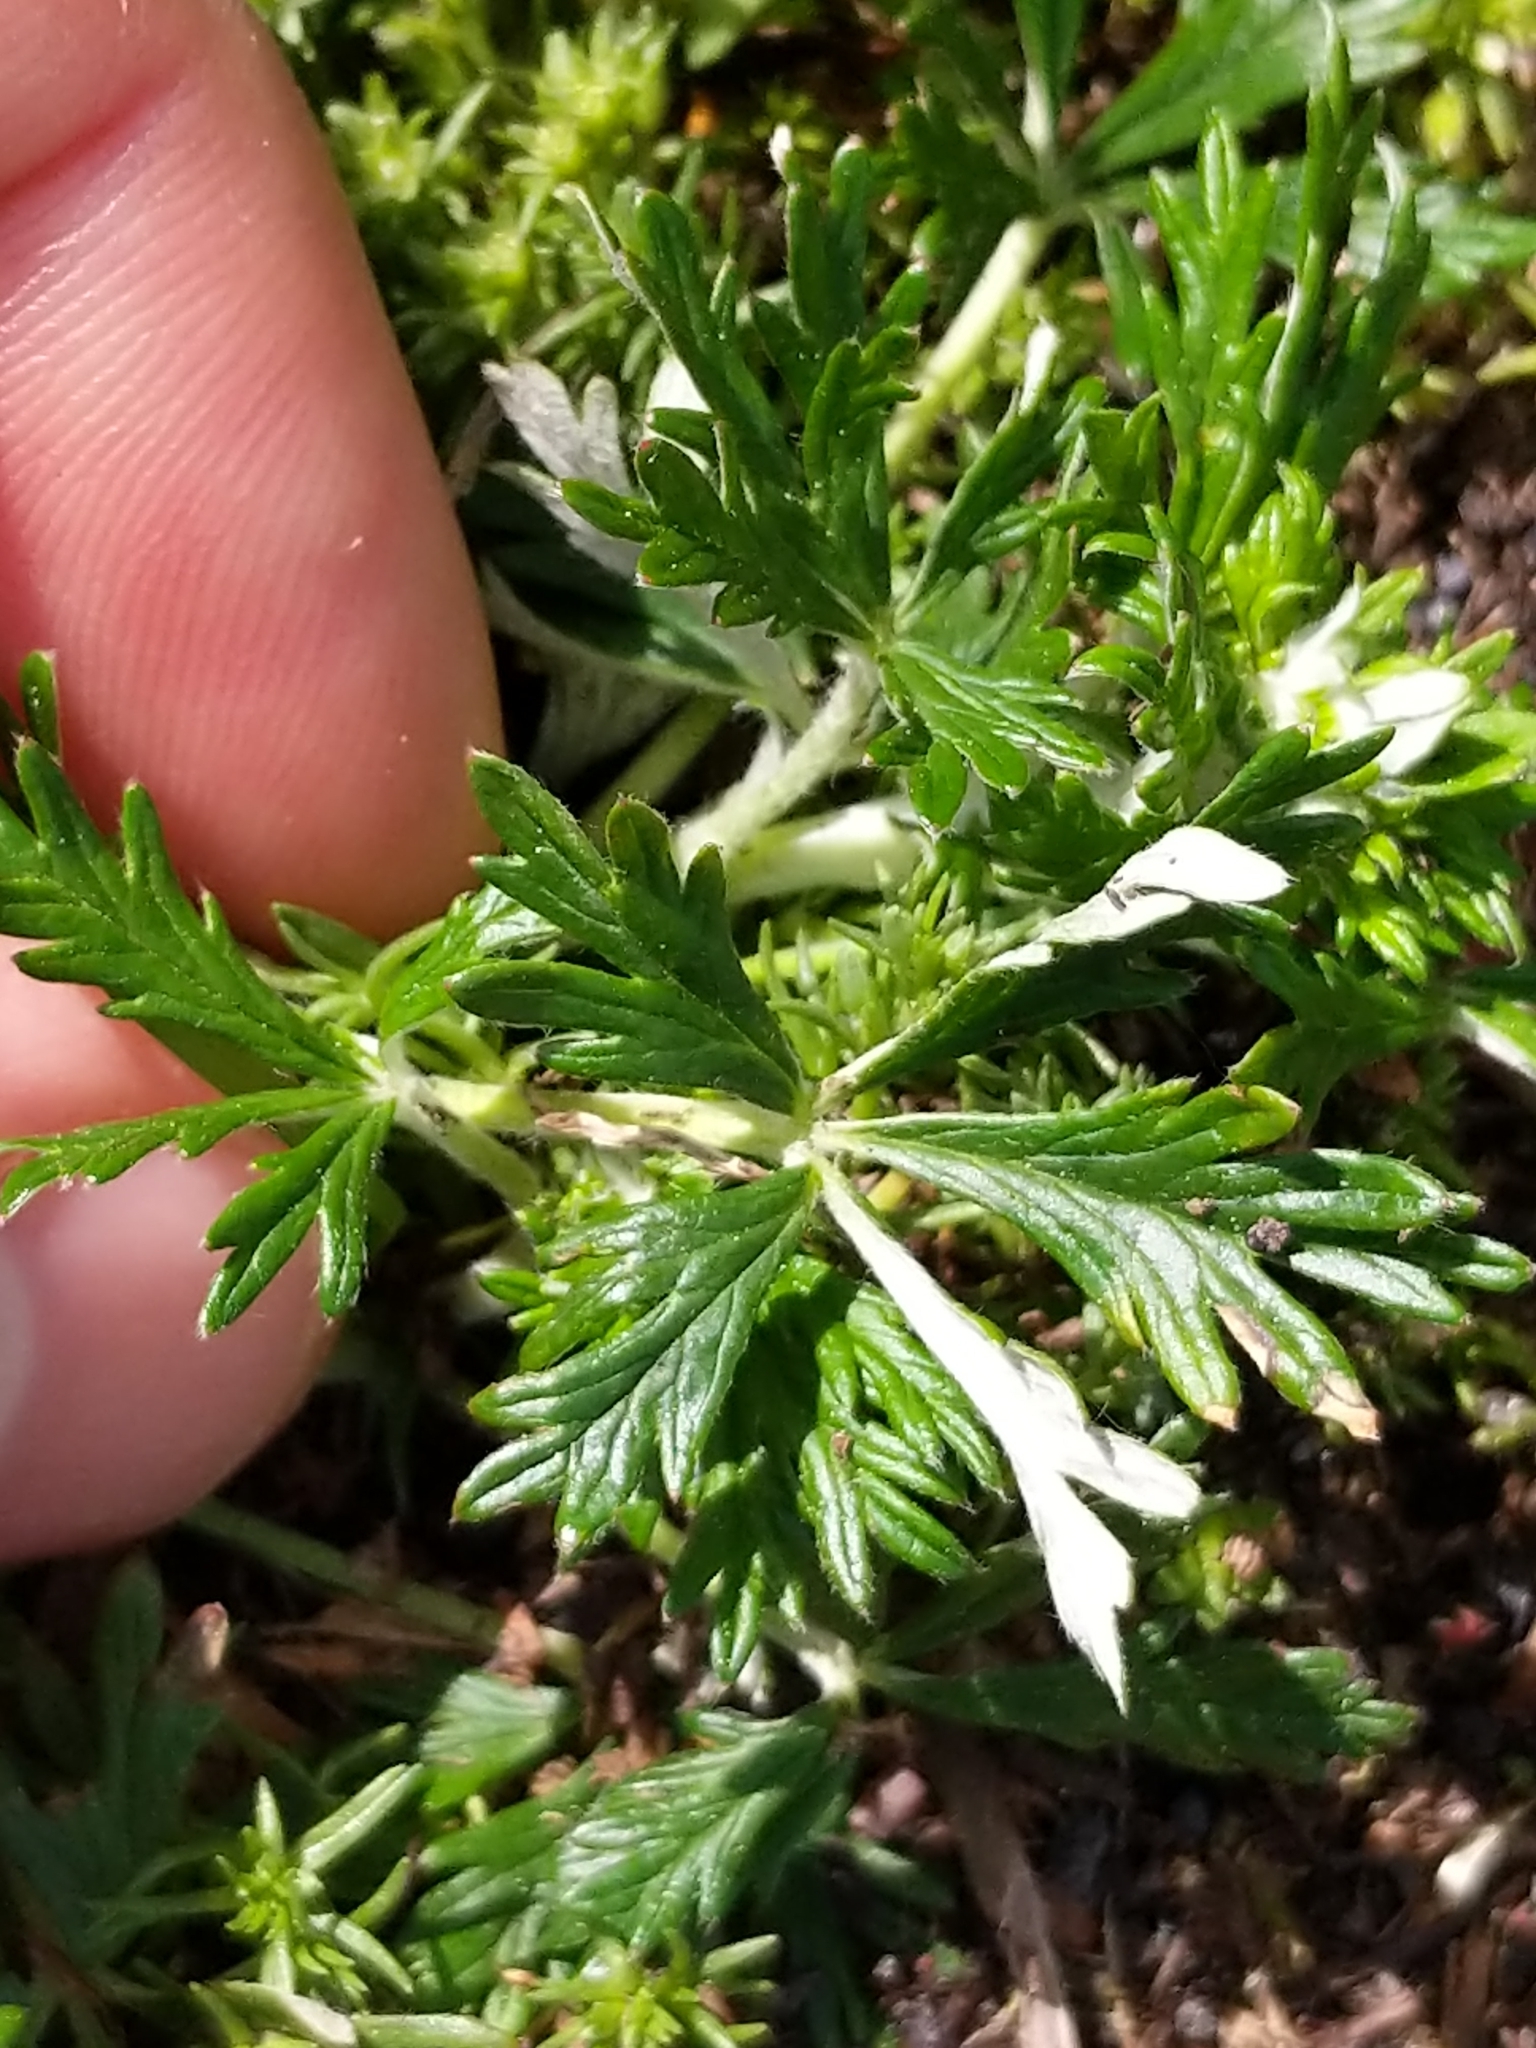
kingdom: Plantae
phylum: Tracheophyta
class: Magnoliopsida
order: Rosales
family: Rosaceae
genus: Potentilla
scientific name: Potentilla argentea
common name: Hoary cinquefoil
